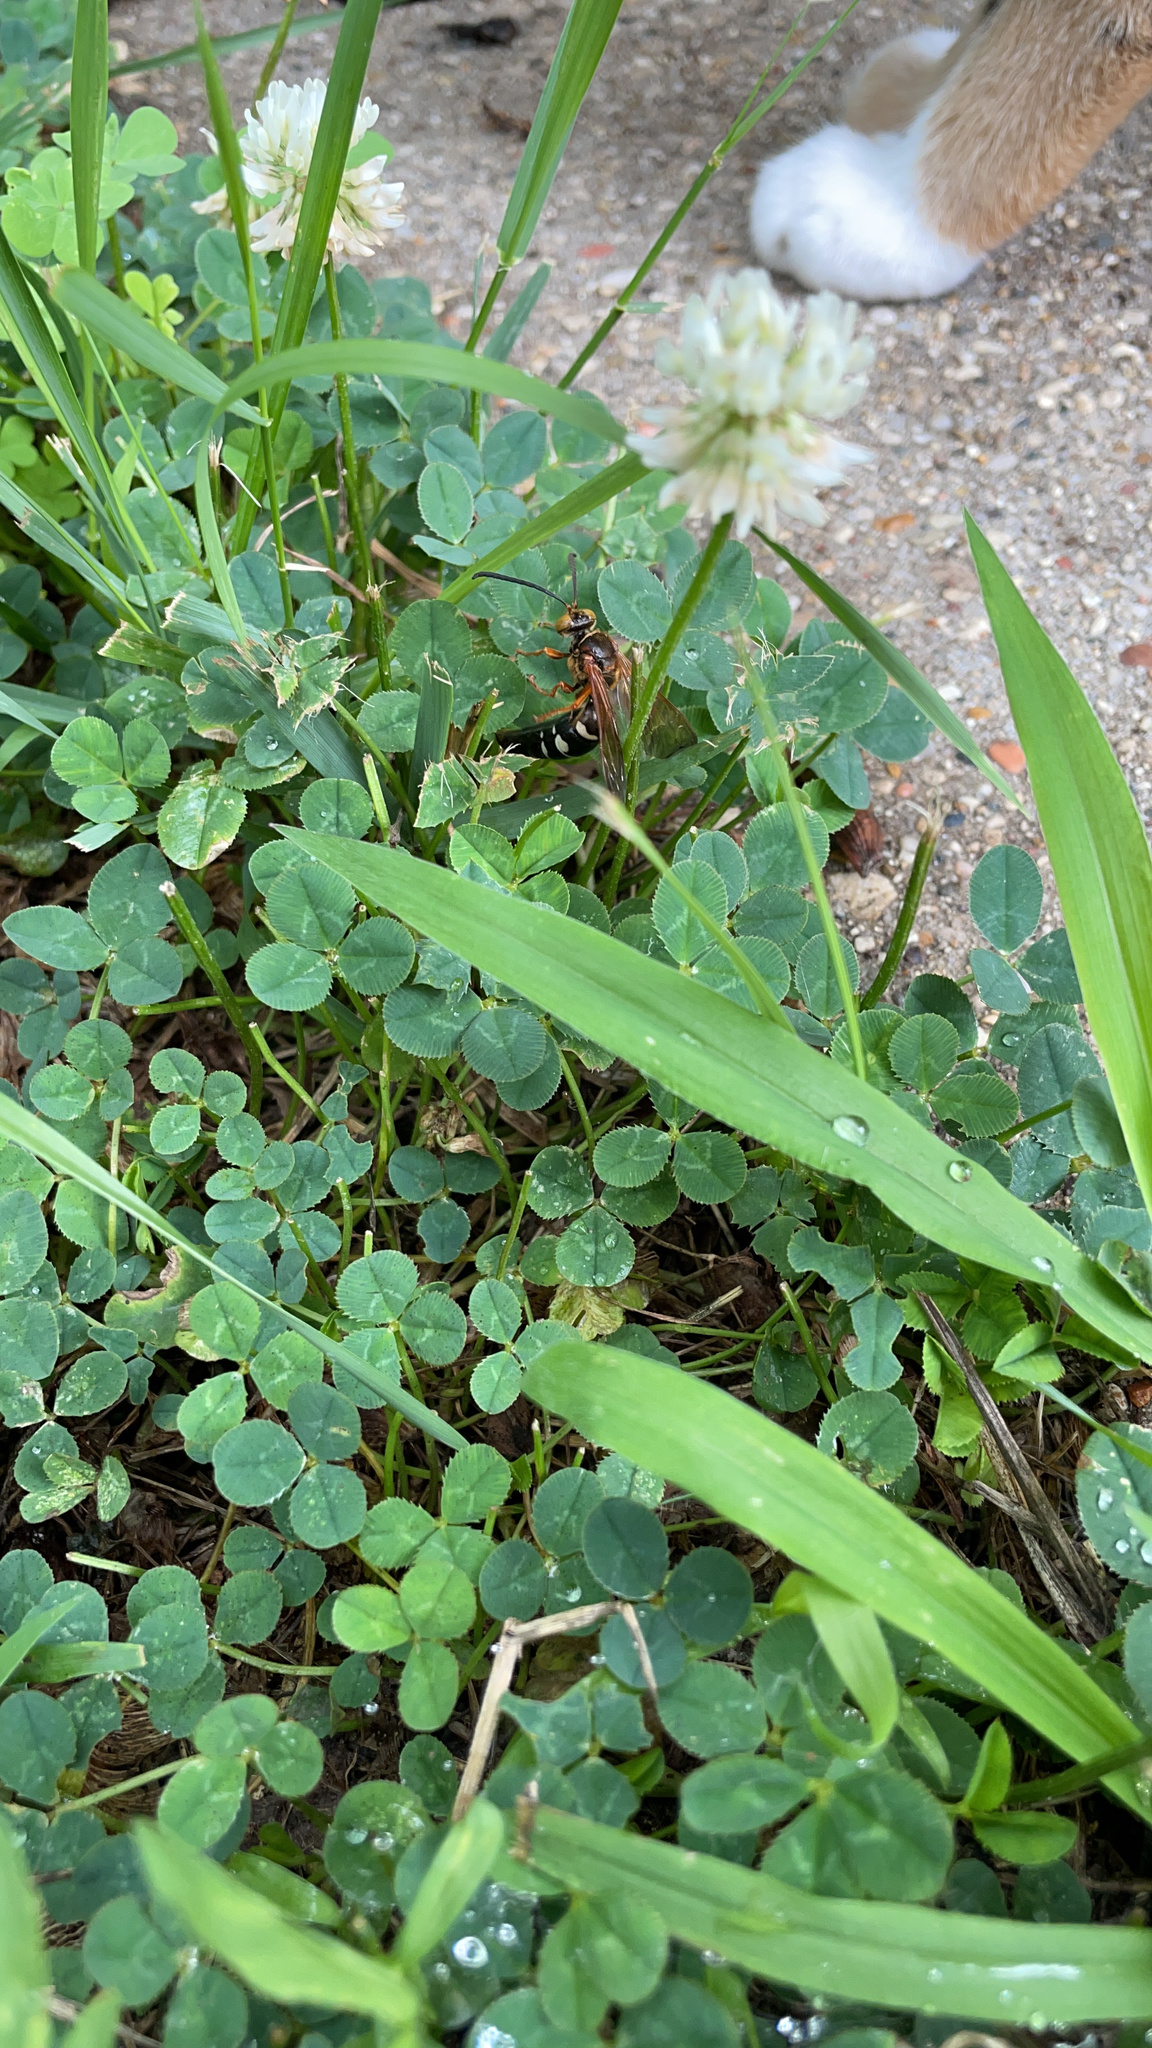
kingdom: Animalia
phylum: Arthropoda
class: Insecta
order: Hymenoptera
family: Crabronidae
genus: Sphecius
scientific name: Sphecius speciosus
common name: Cicada killer
